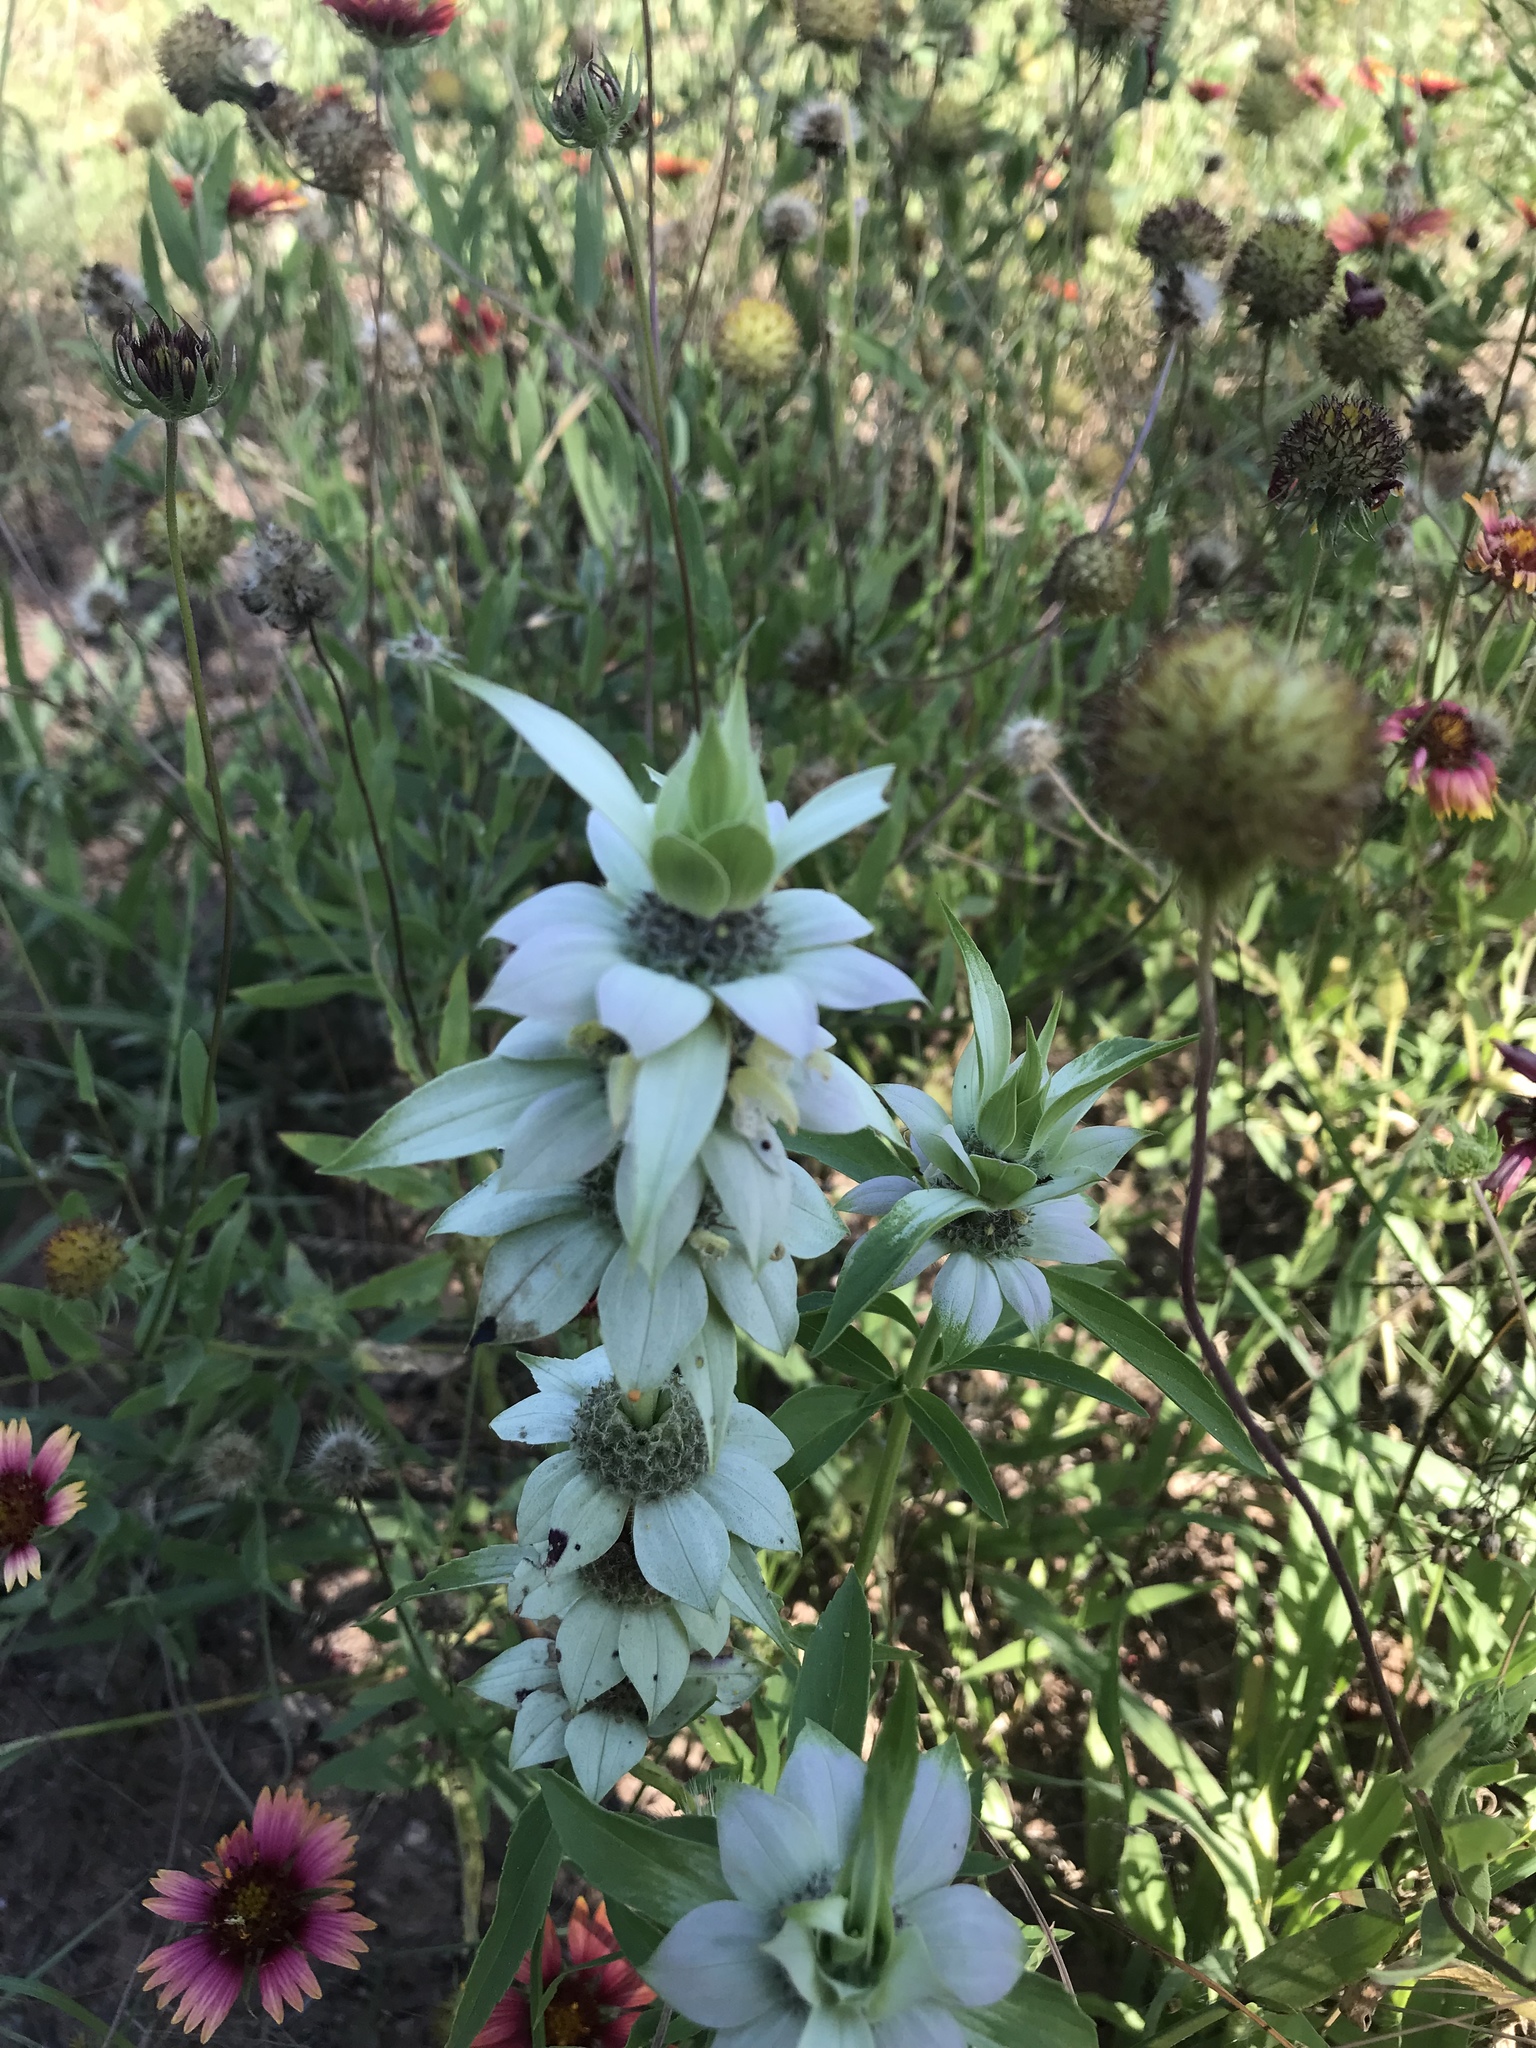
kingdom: Plantae
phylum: Tracheophyta
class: Magnoliopsida
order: Lamiales
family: Lamiaceae
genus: Monarda
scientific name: Monarda punctata
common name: Dotted monarda
